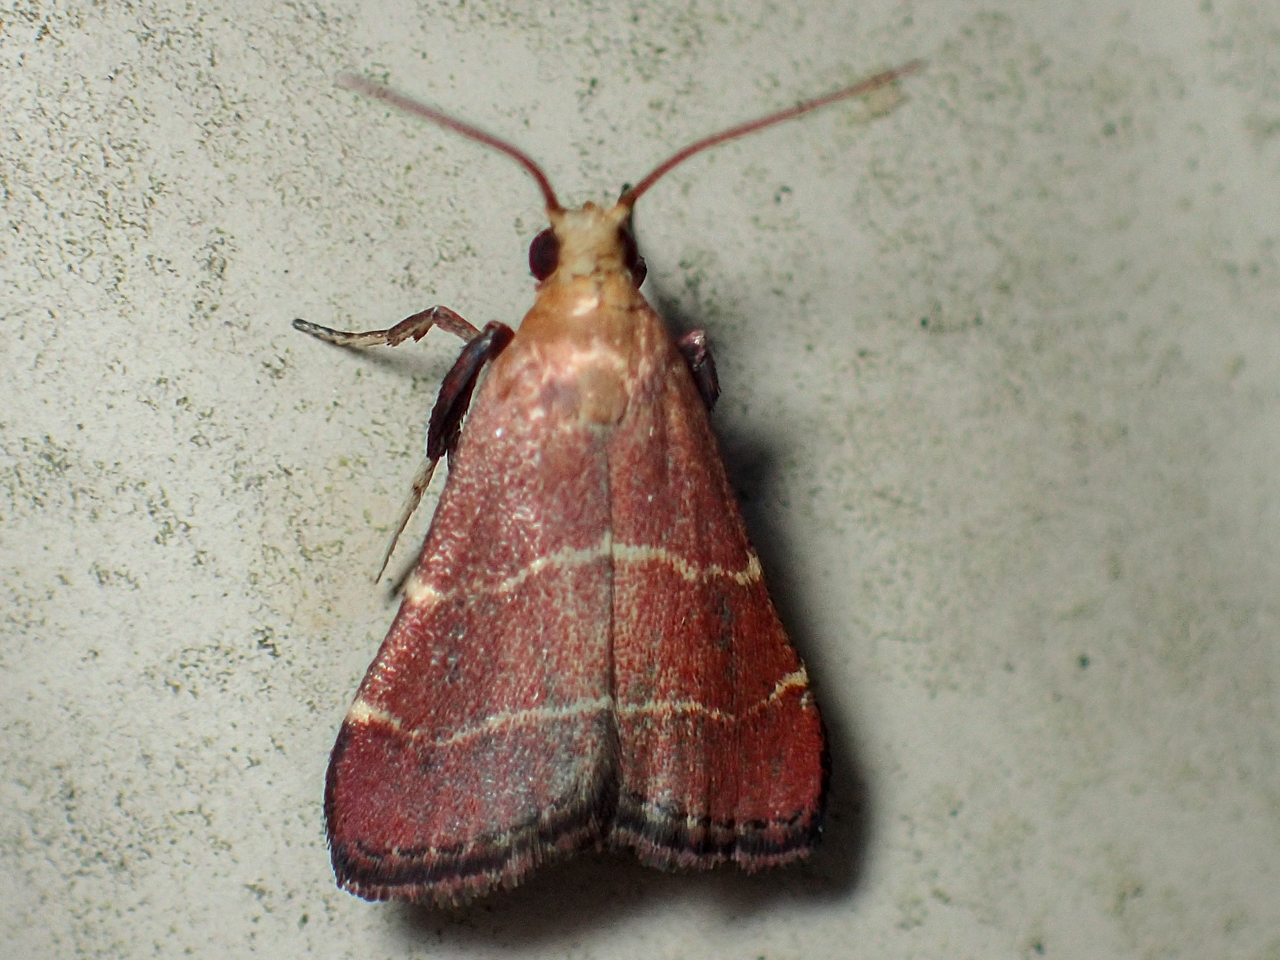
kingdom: Animalia
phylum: Arthropoda
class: Insecta
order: Lepidoptera
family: Pyralidae
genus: Arta
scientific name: Arta statalis
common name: Posturing arta moth
